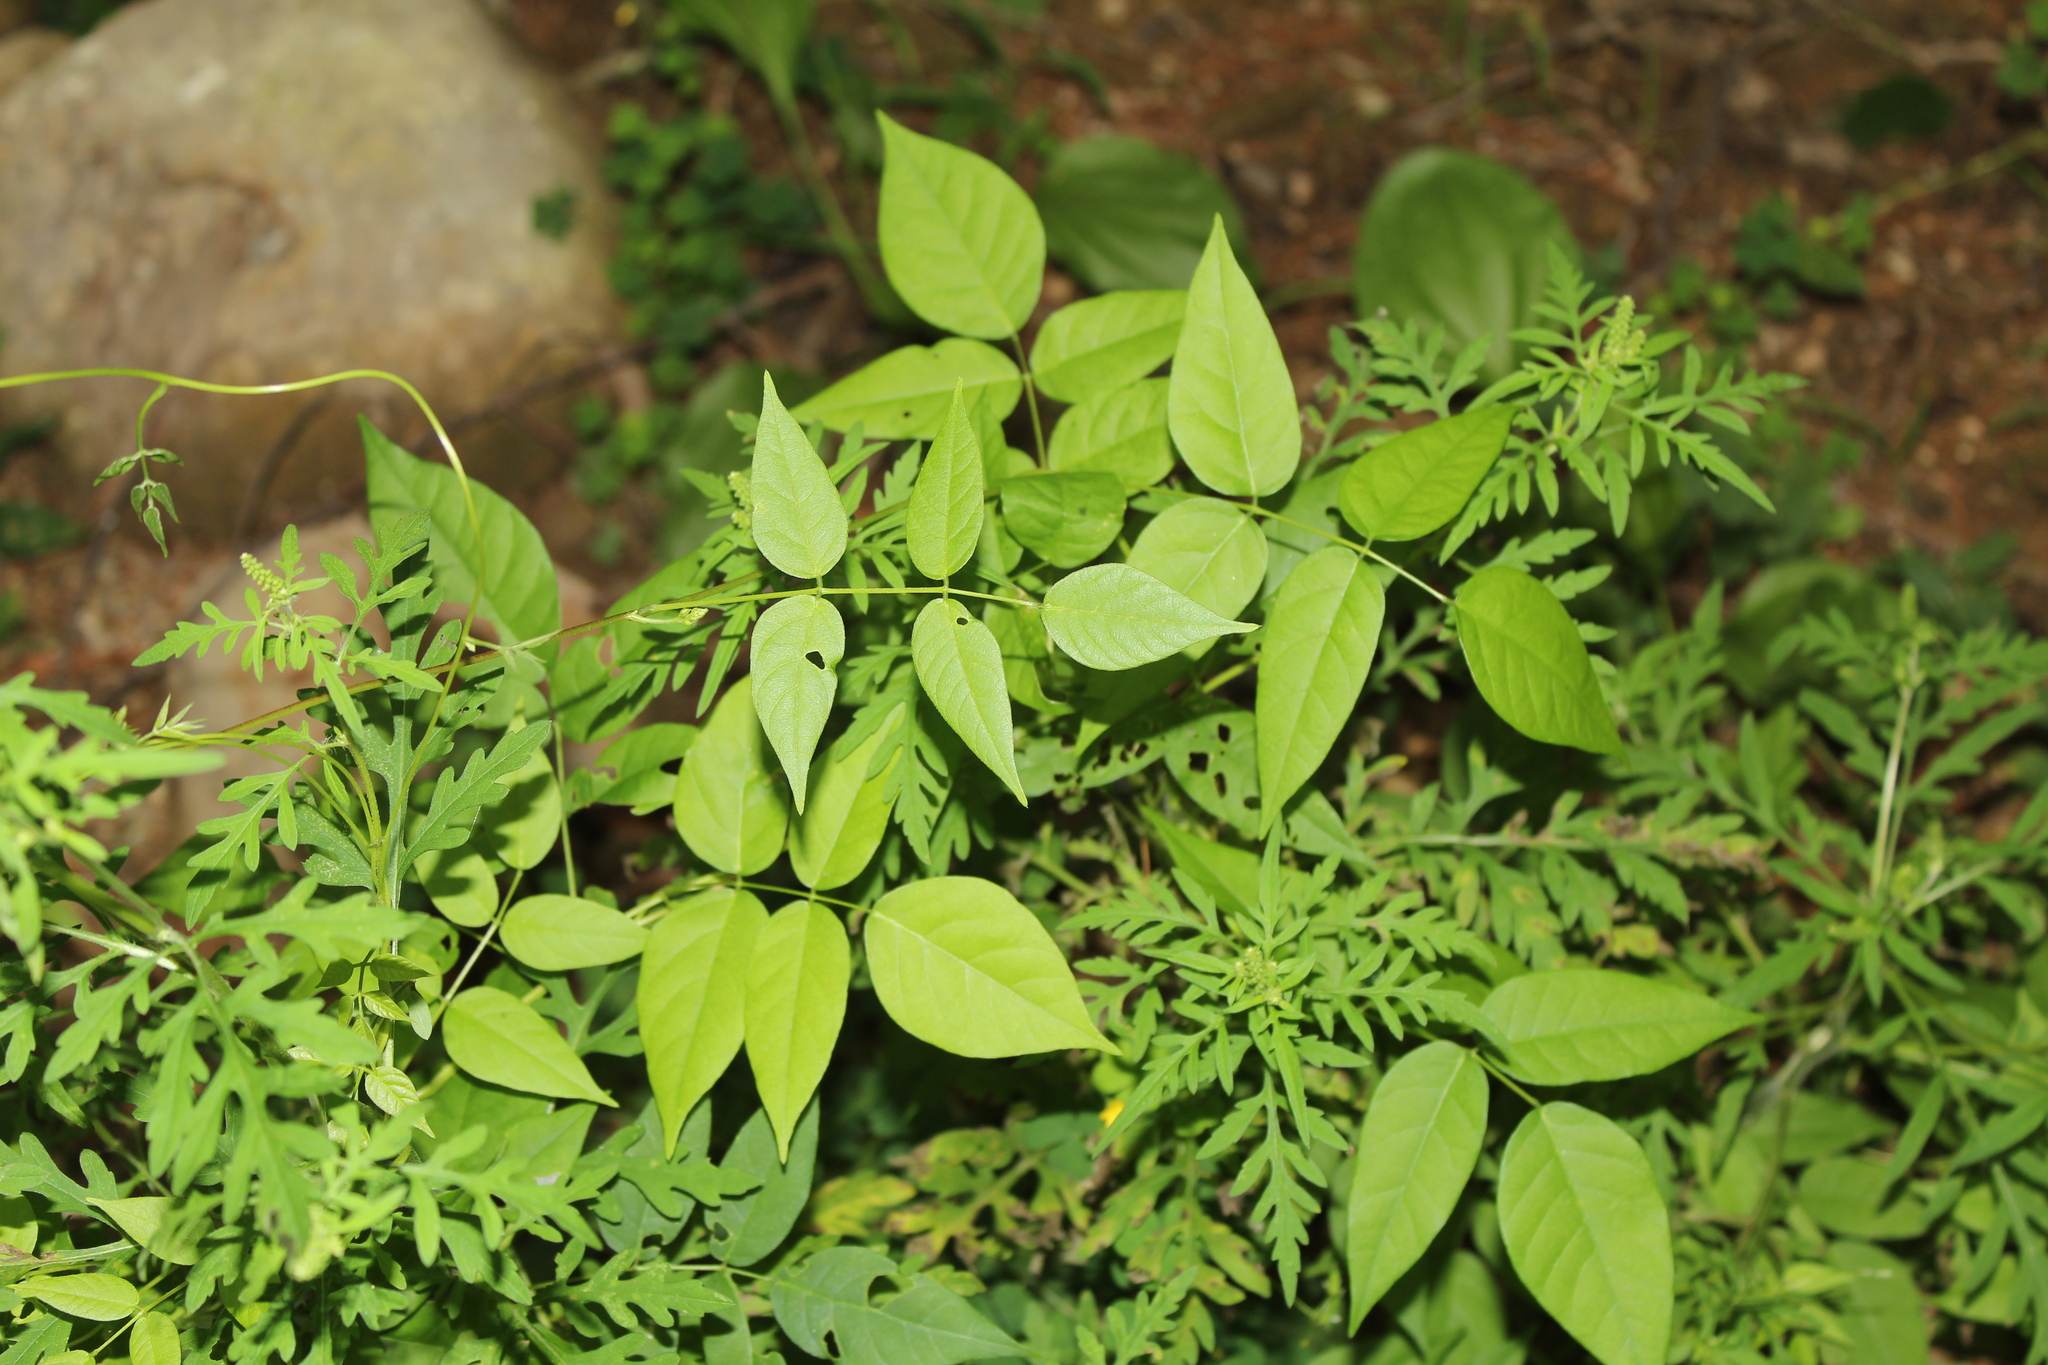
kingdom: Plantae
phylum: Tracheophyta
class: Magnoliopsida
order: Fabales
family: Fabaceae
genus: Apios
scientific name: Apios americana
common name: American potato-bean
